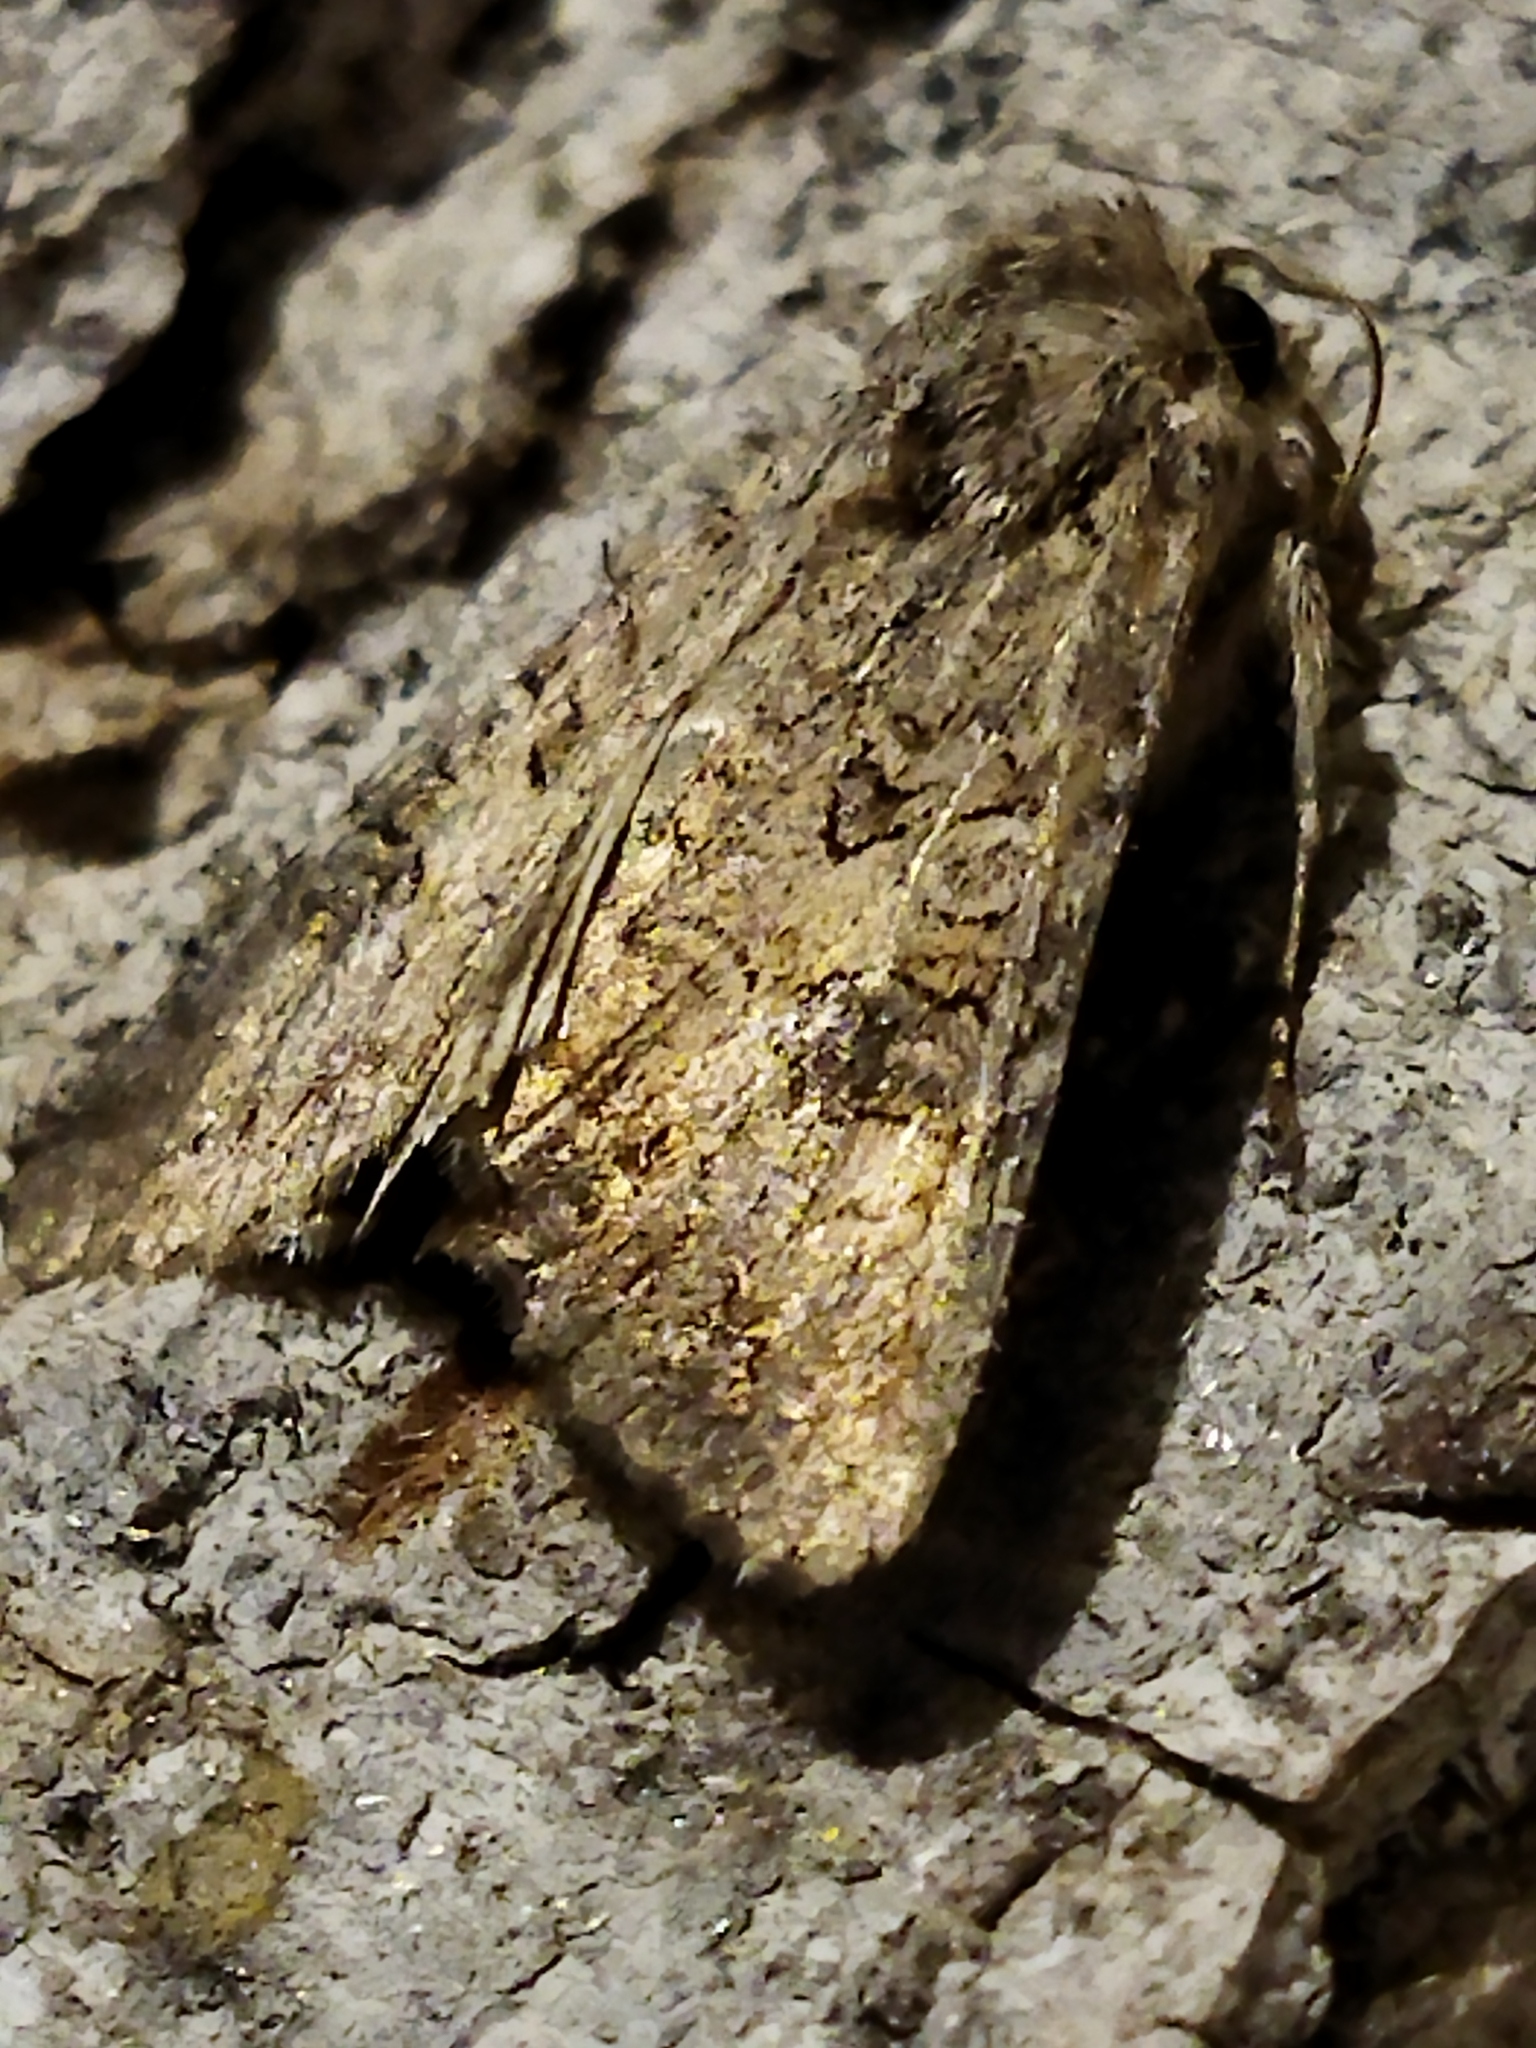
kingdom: Animalia
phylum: Arthropoda
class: Insecta
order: Lepidoptera
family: Noctuidae
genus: Anarta
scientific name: Anarta trifolii
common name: Clover cutworm moth
